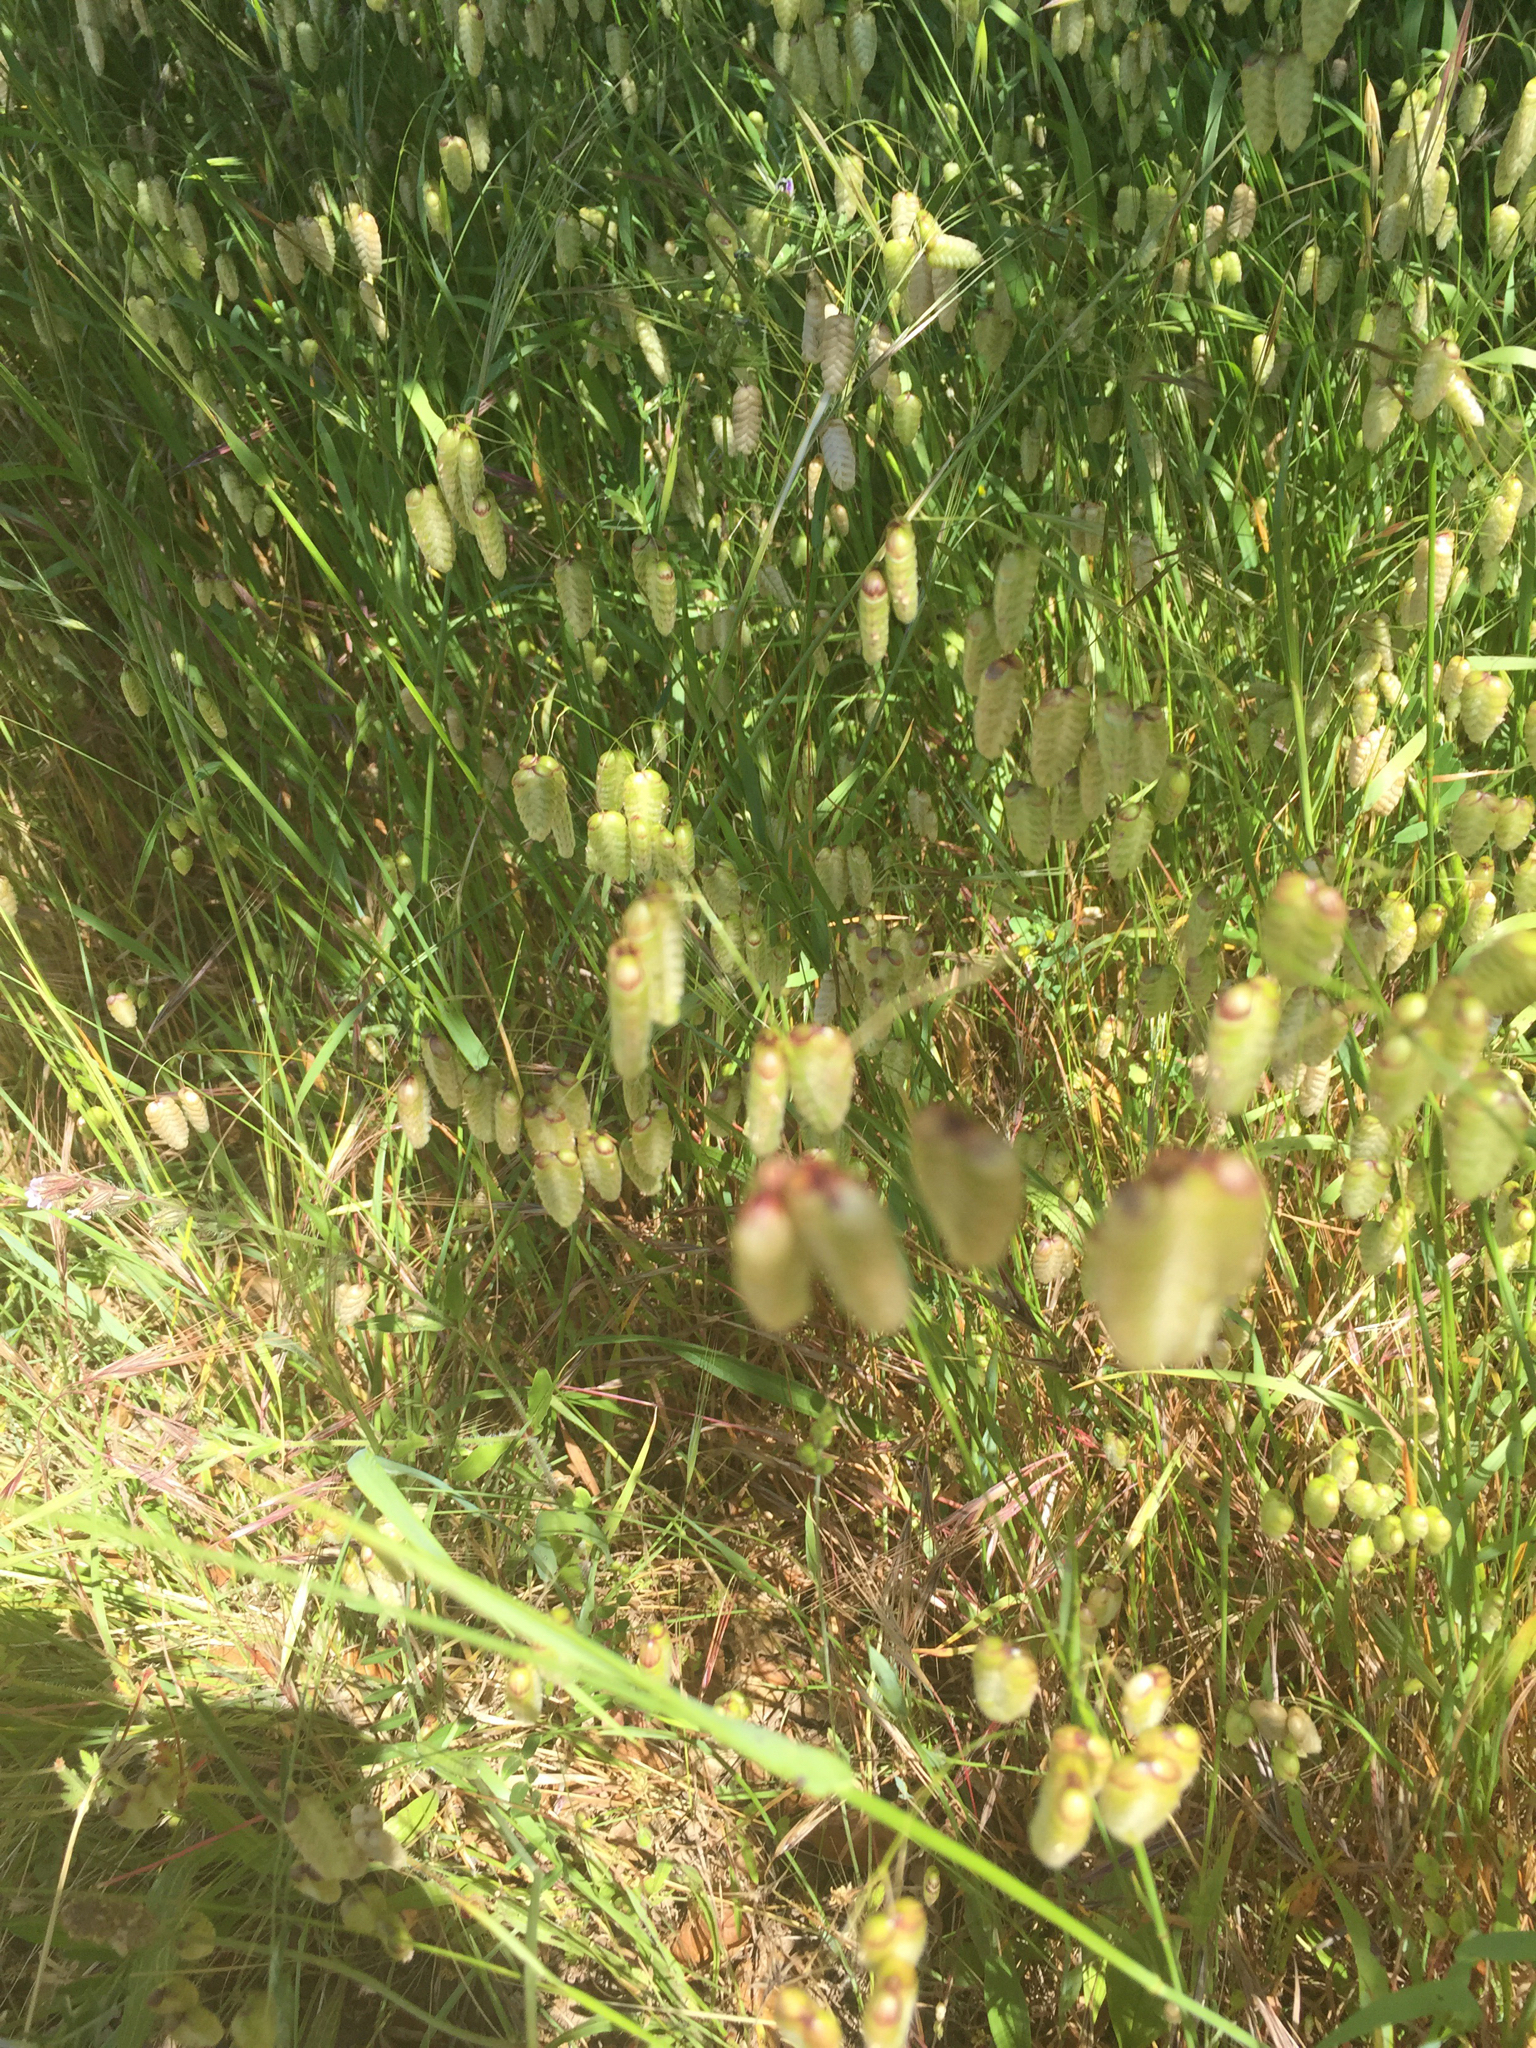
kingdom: Plantae
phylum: Tracheophyta
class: Liliopsida
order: Poales
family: Poaceae
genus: Briza
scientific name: Briza maxima
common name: Big quakinggrass
